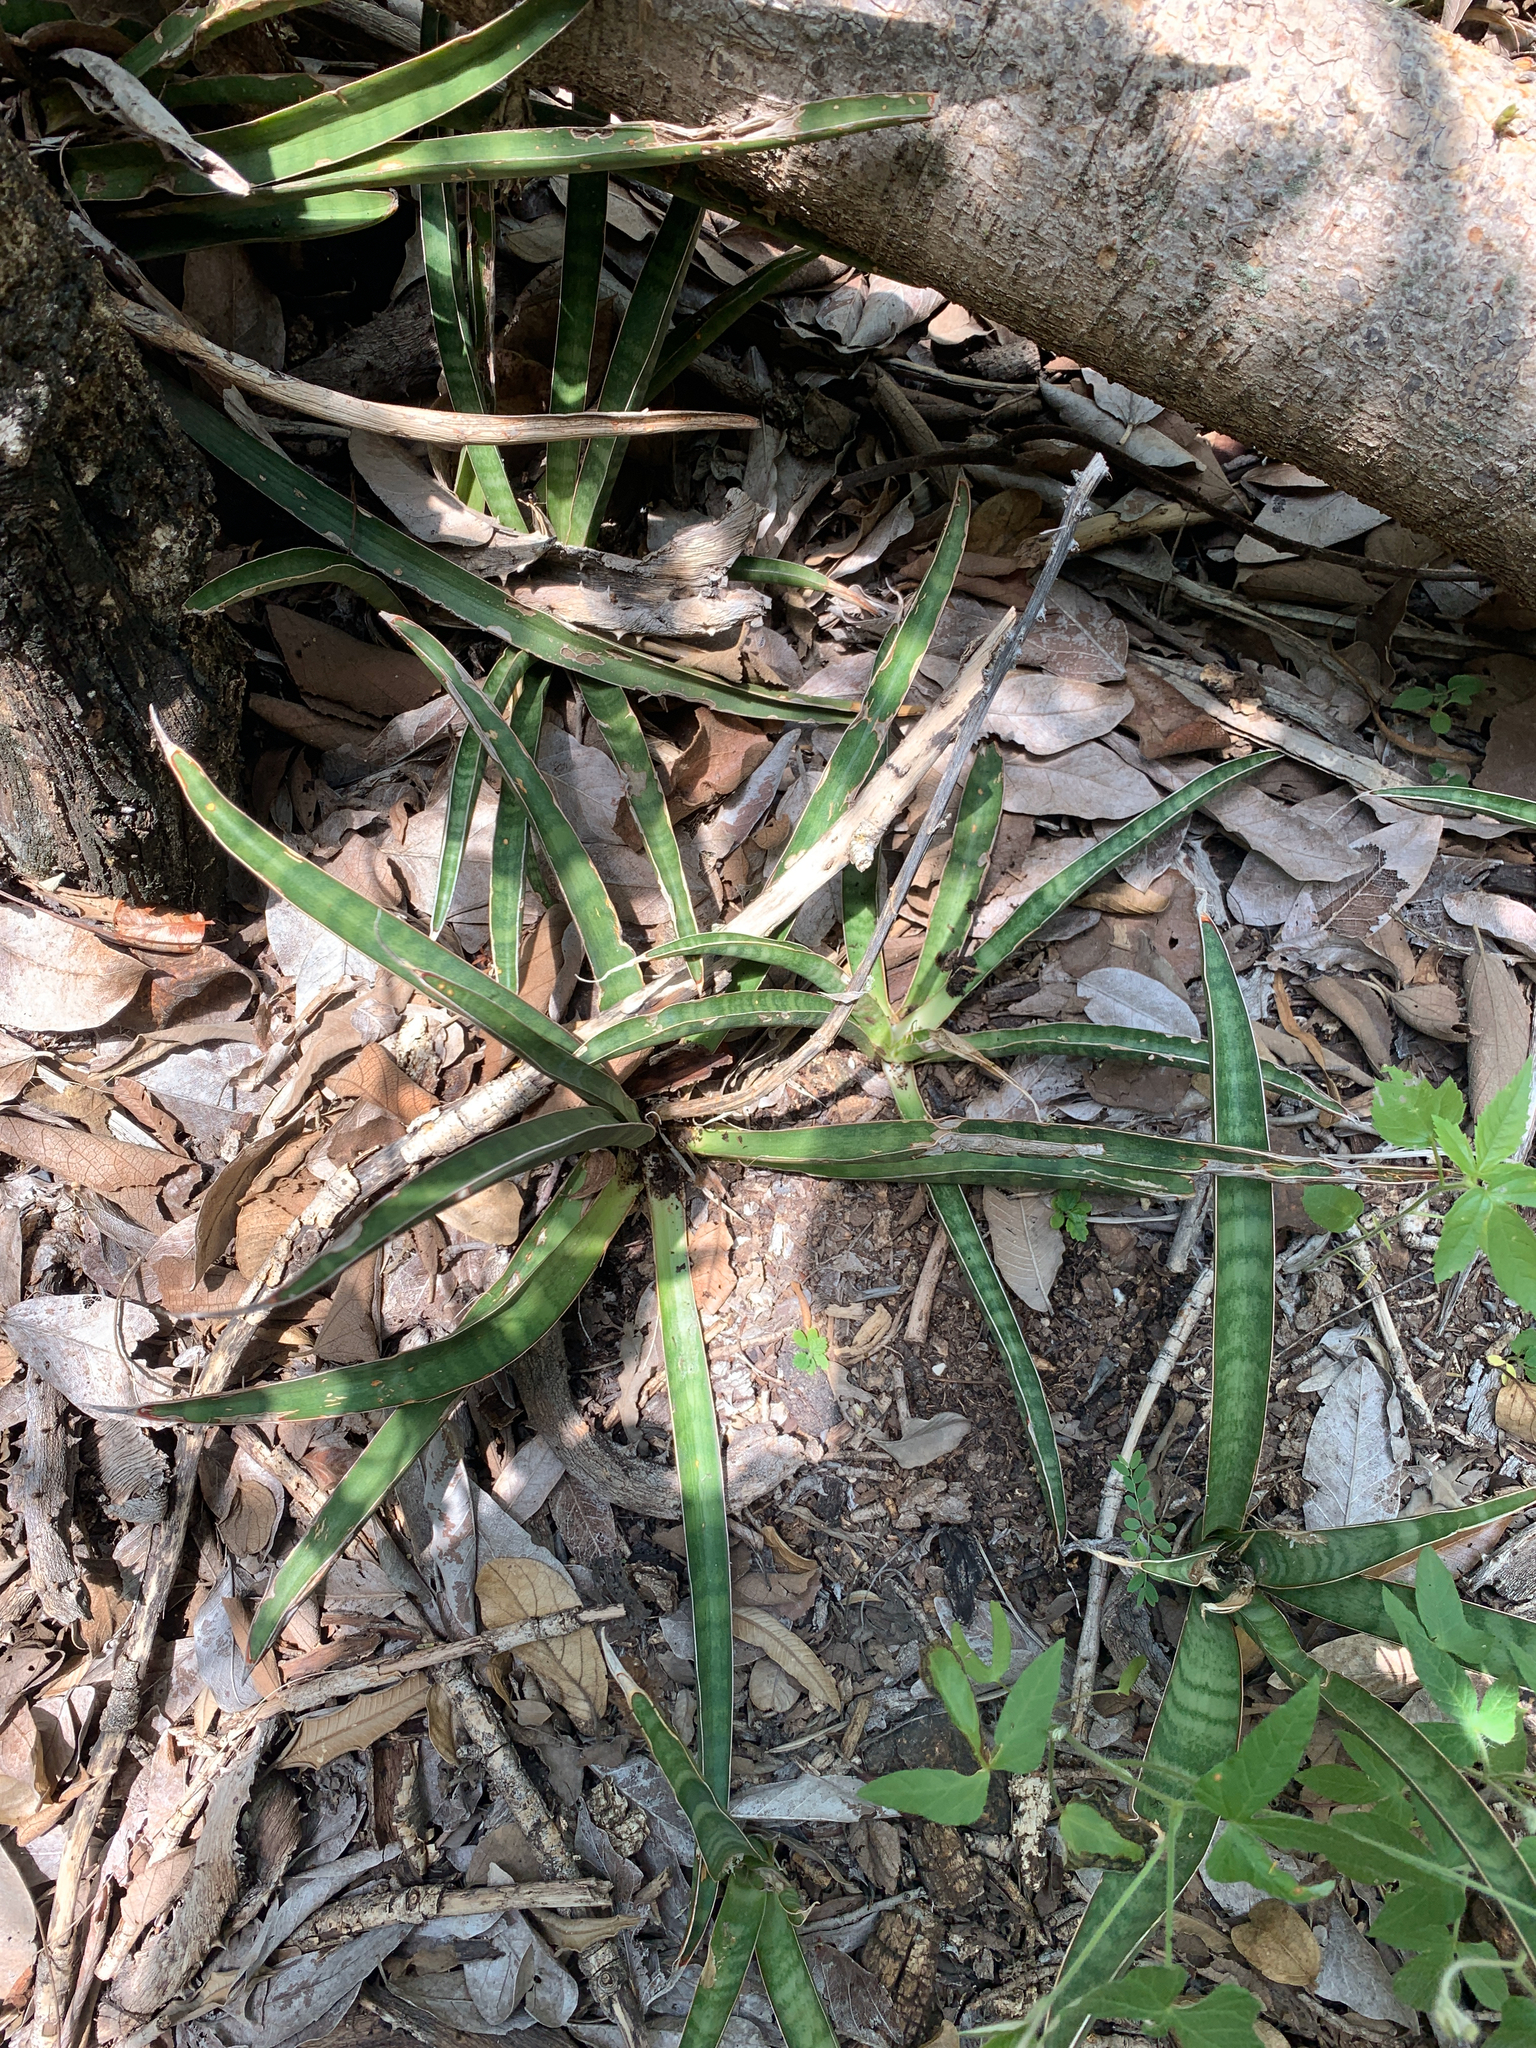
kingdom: Plantae
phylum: Tracheophyta
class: Liliopsida
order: Asparagales
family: Asparagaceae
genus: Dracaena
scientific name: Dracaena aethiopica
